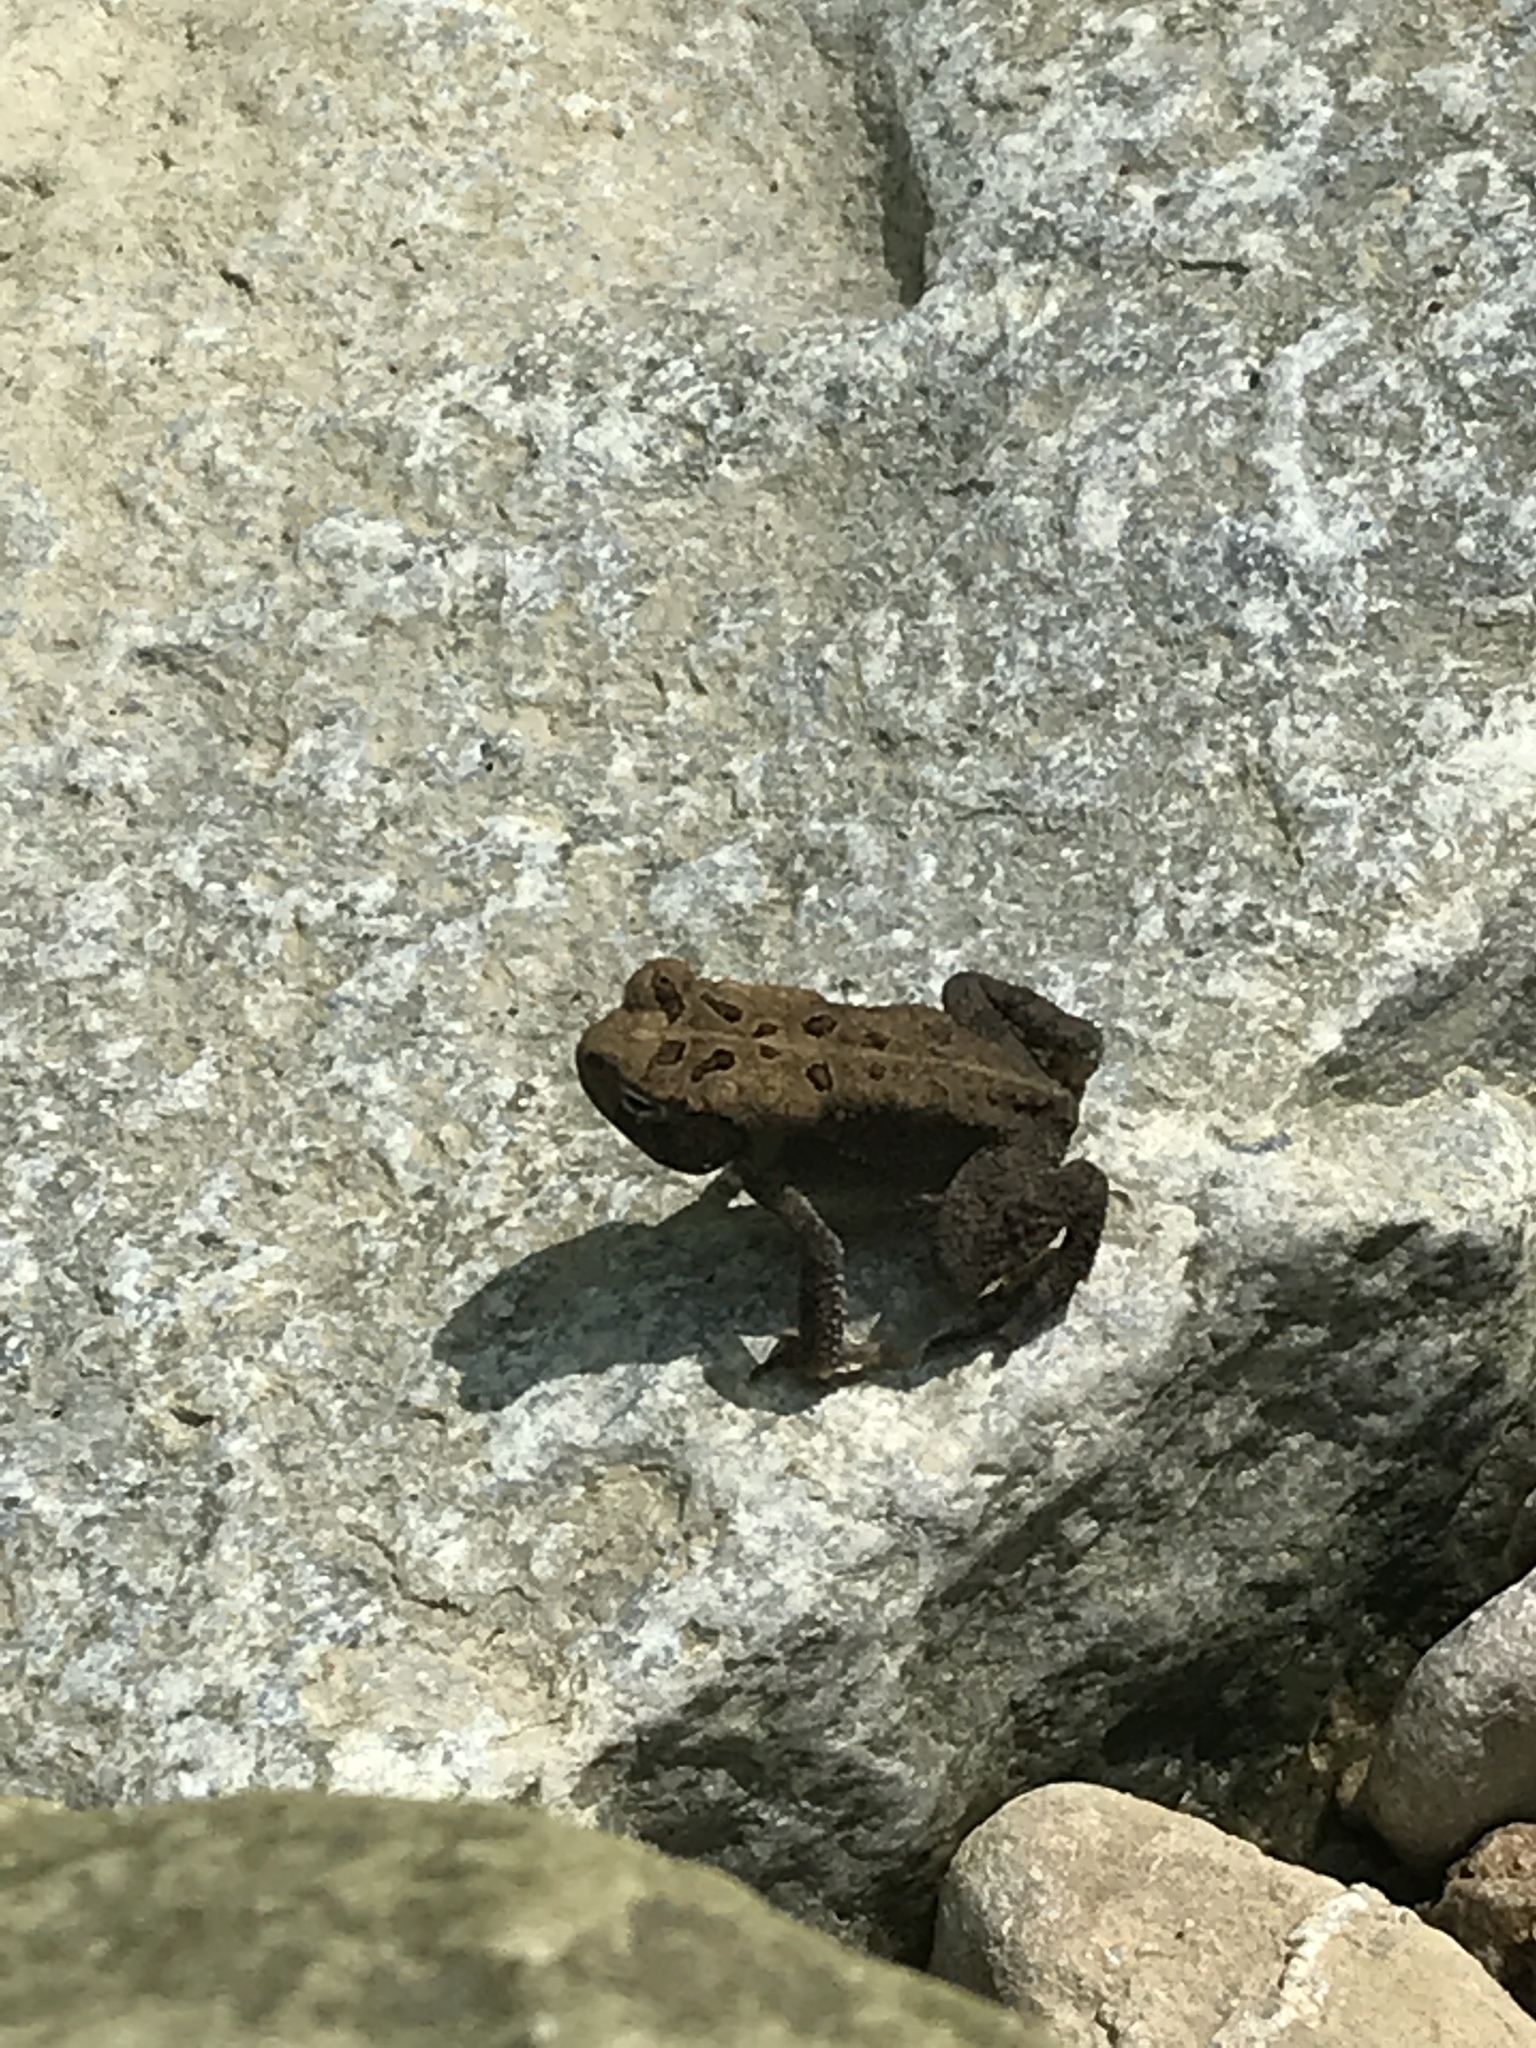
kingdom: Animalia
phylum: Chordata
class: Amphibia
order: Anura
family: Bufonidae
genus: Anaxyrus
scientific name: Anaxyrus americanus
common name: American toad
